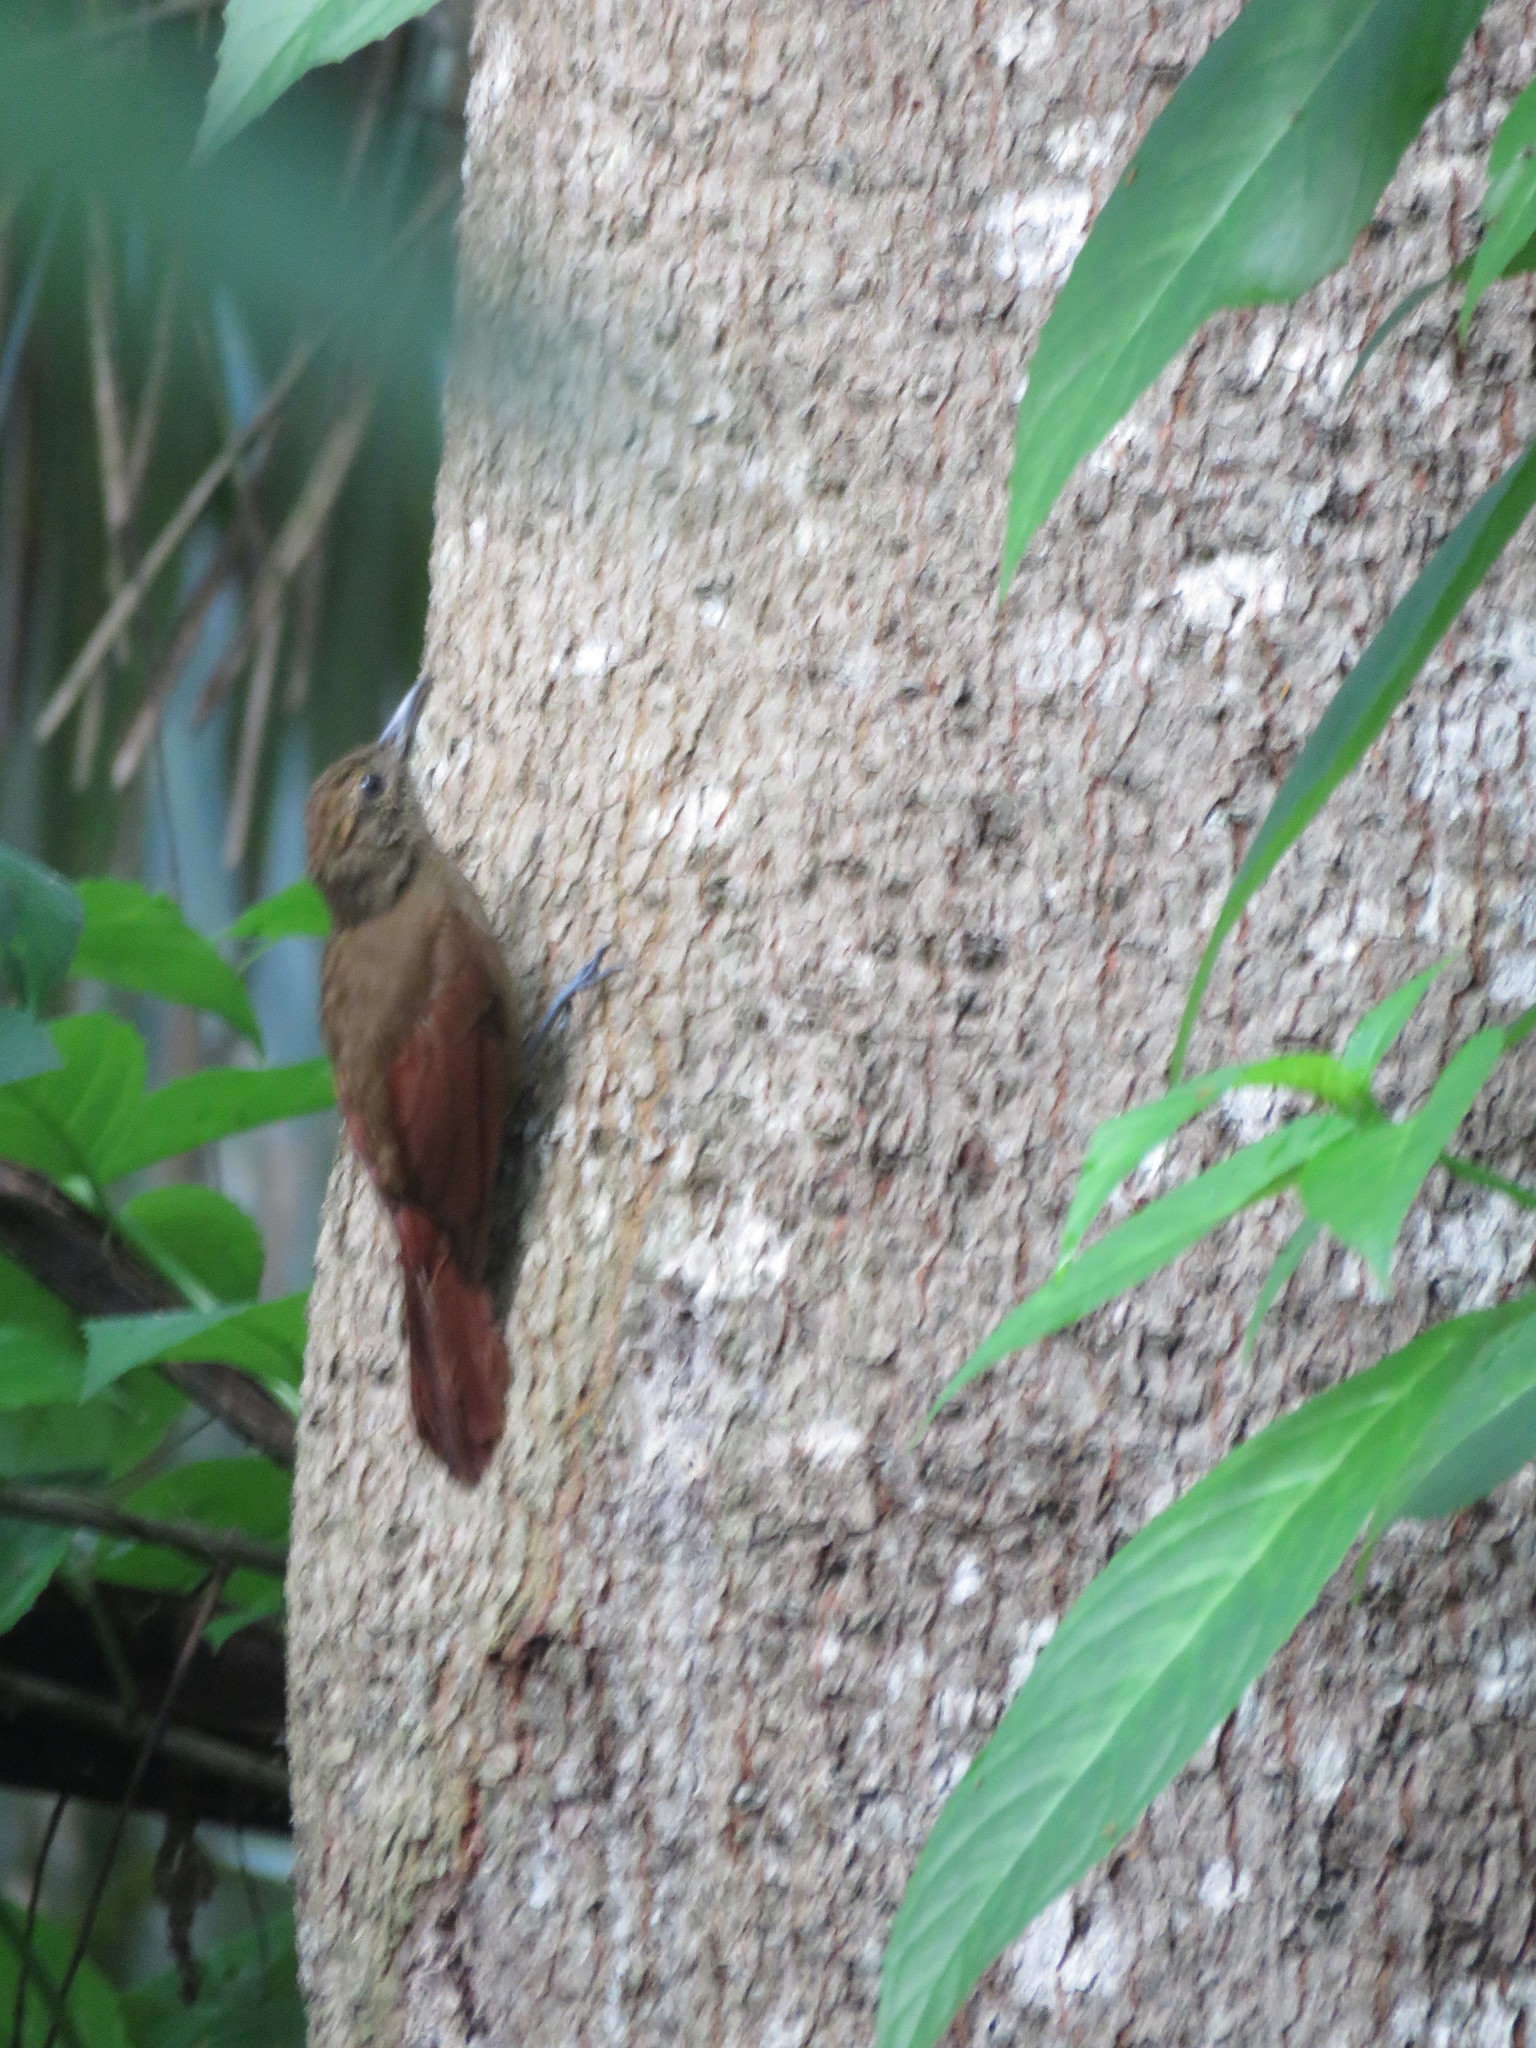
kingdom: Animalia
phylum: Chordata
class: Aves
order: Passeriformes
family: Furnariidae
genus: Dendrocincla
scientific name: Dendrocincla fuliginosa
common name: Plain-brown woodcreeper
